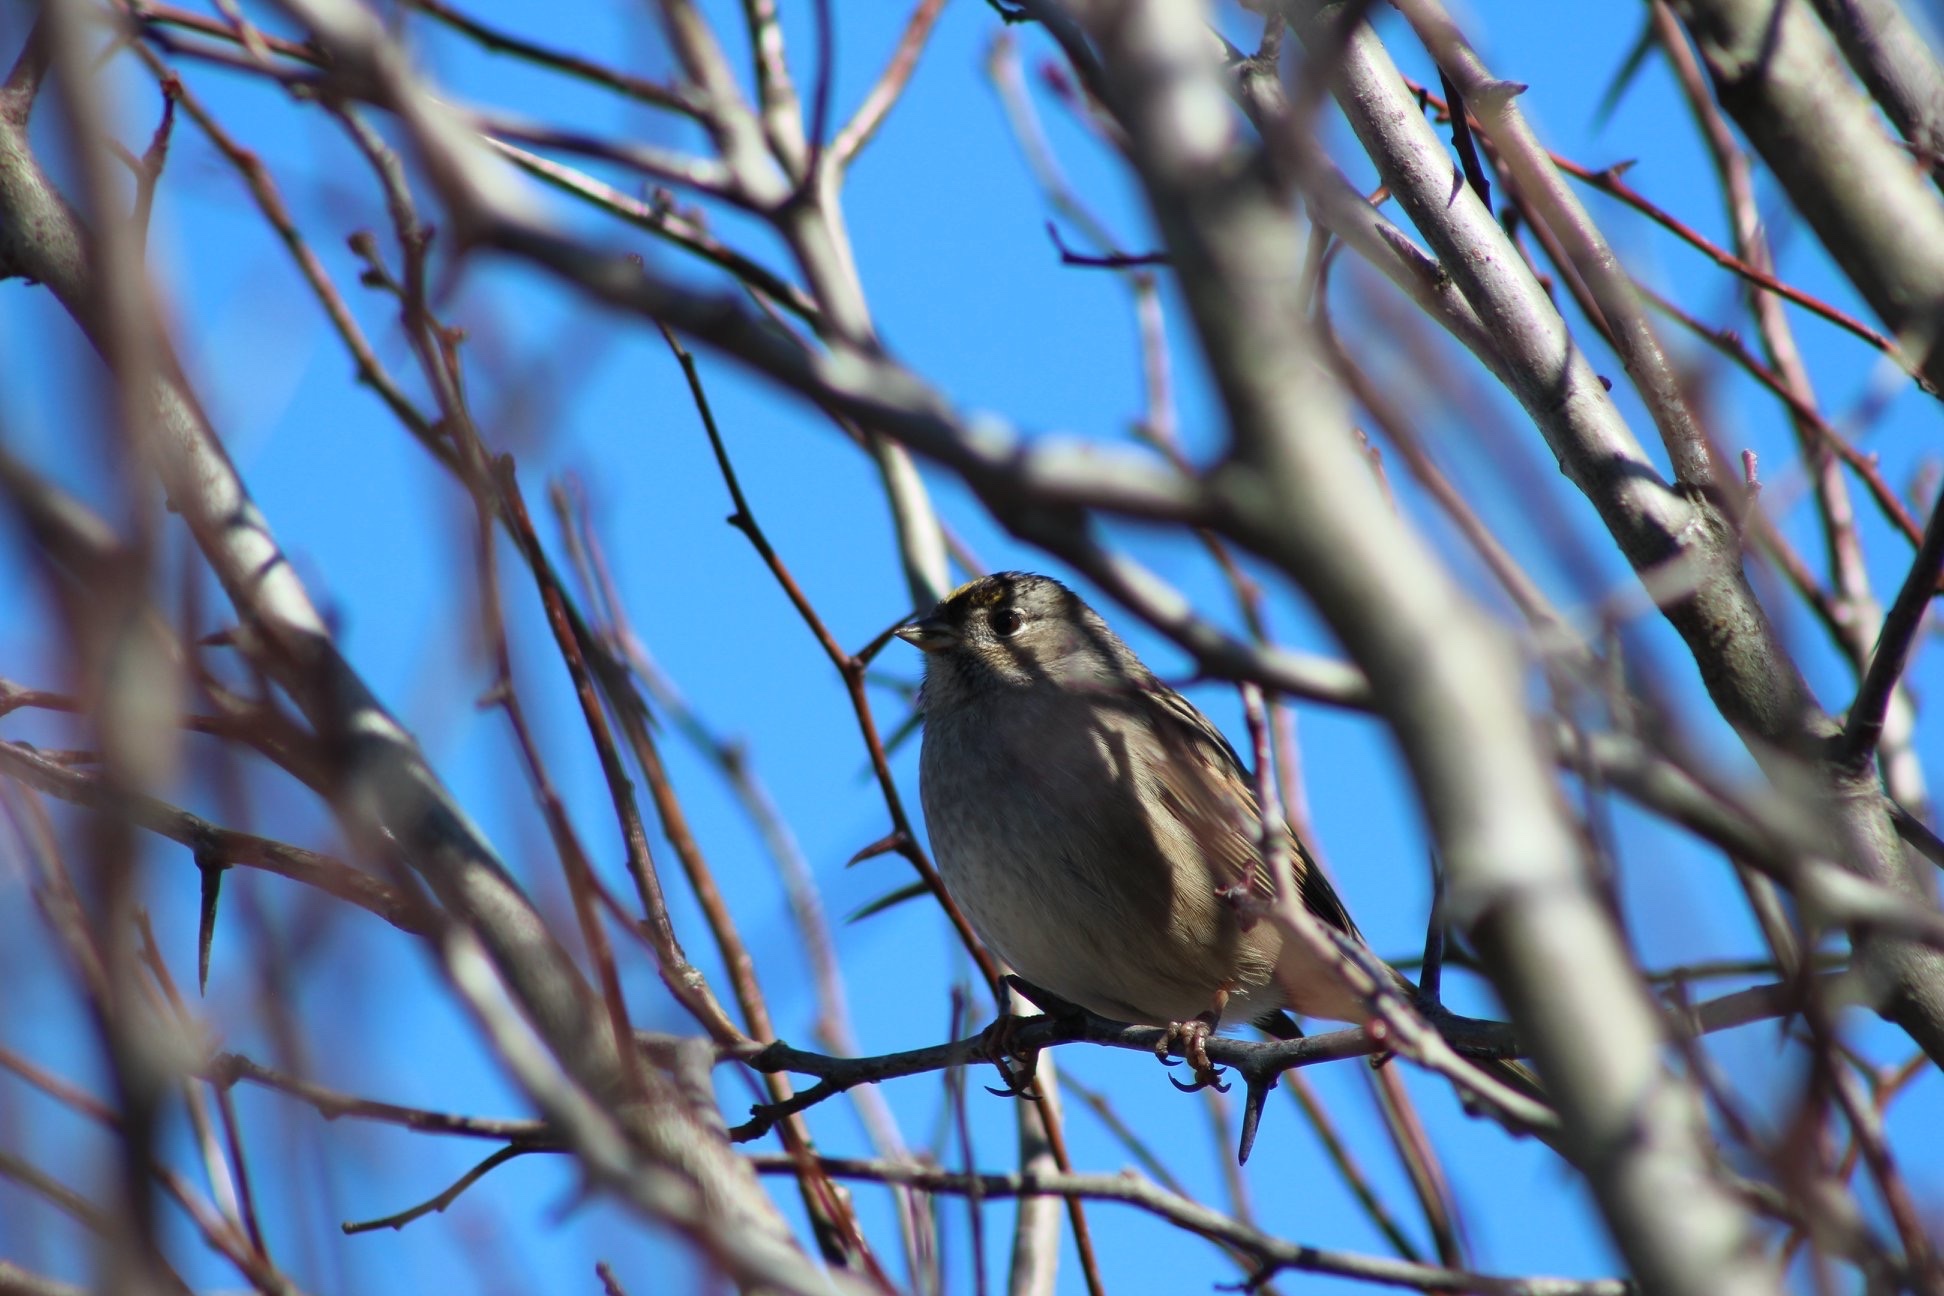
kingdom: Animalia
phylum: Chordata
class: Aves
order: Passeriformes
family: Passerellidae
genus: Zonotrichia
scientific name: Zonotrichia atricapilla
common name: Golden-crowned sparrow
